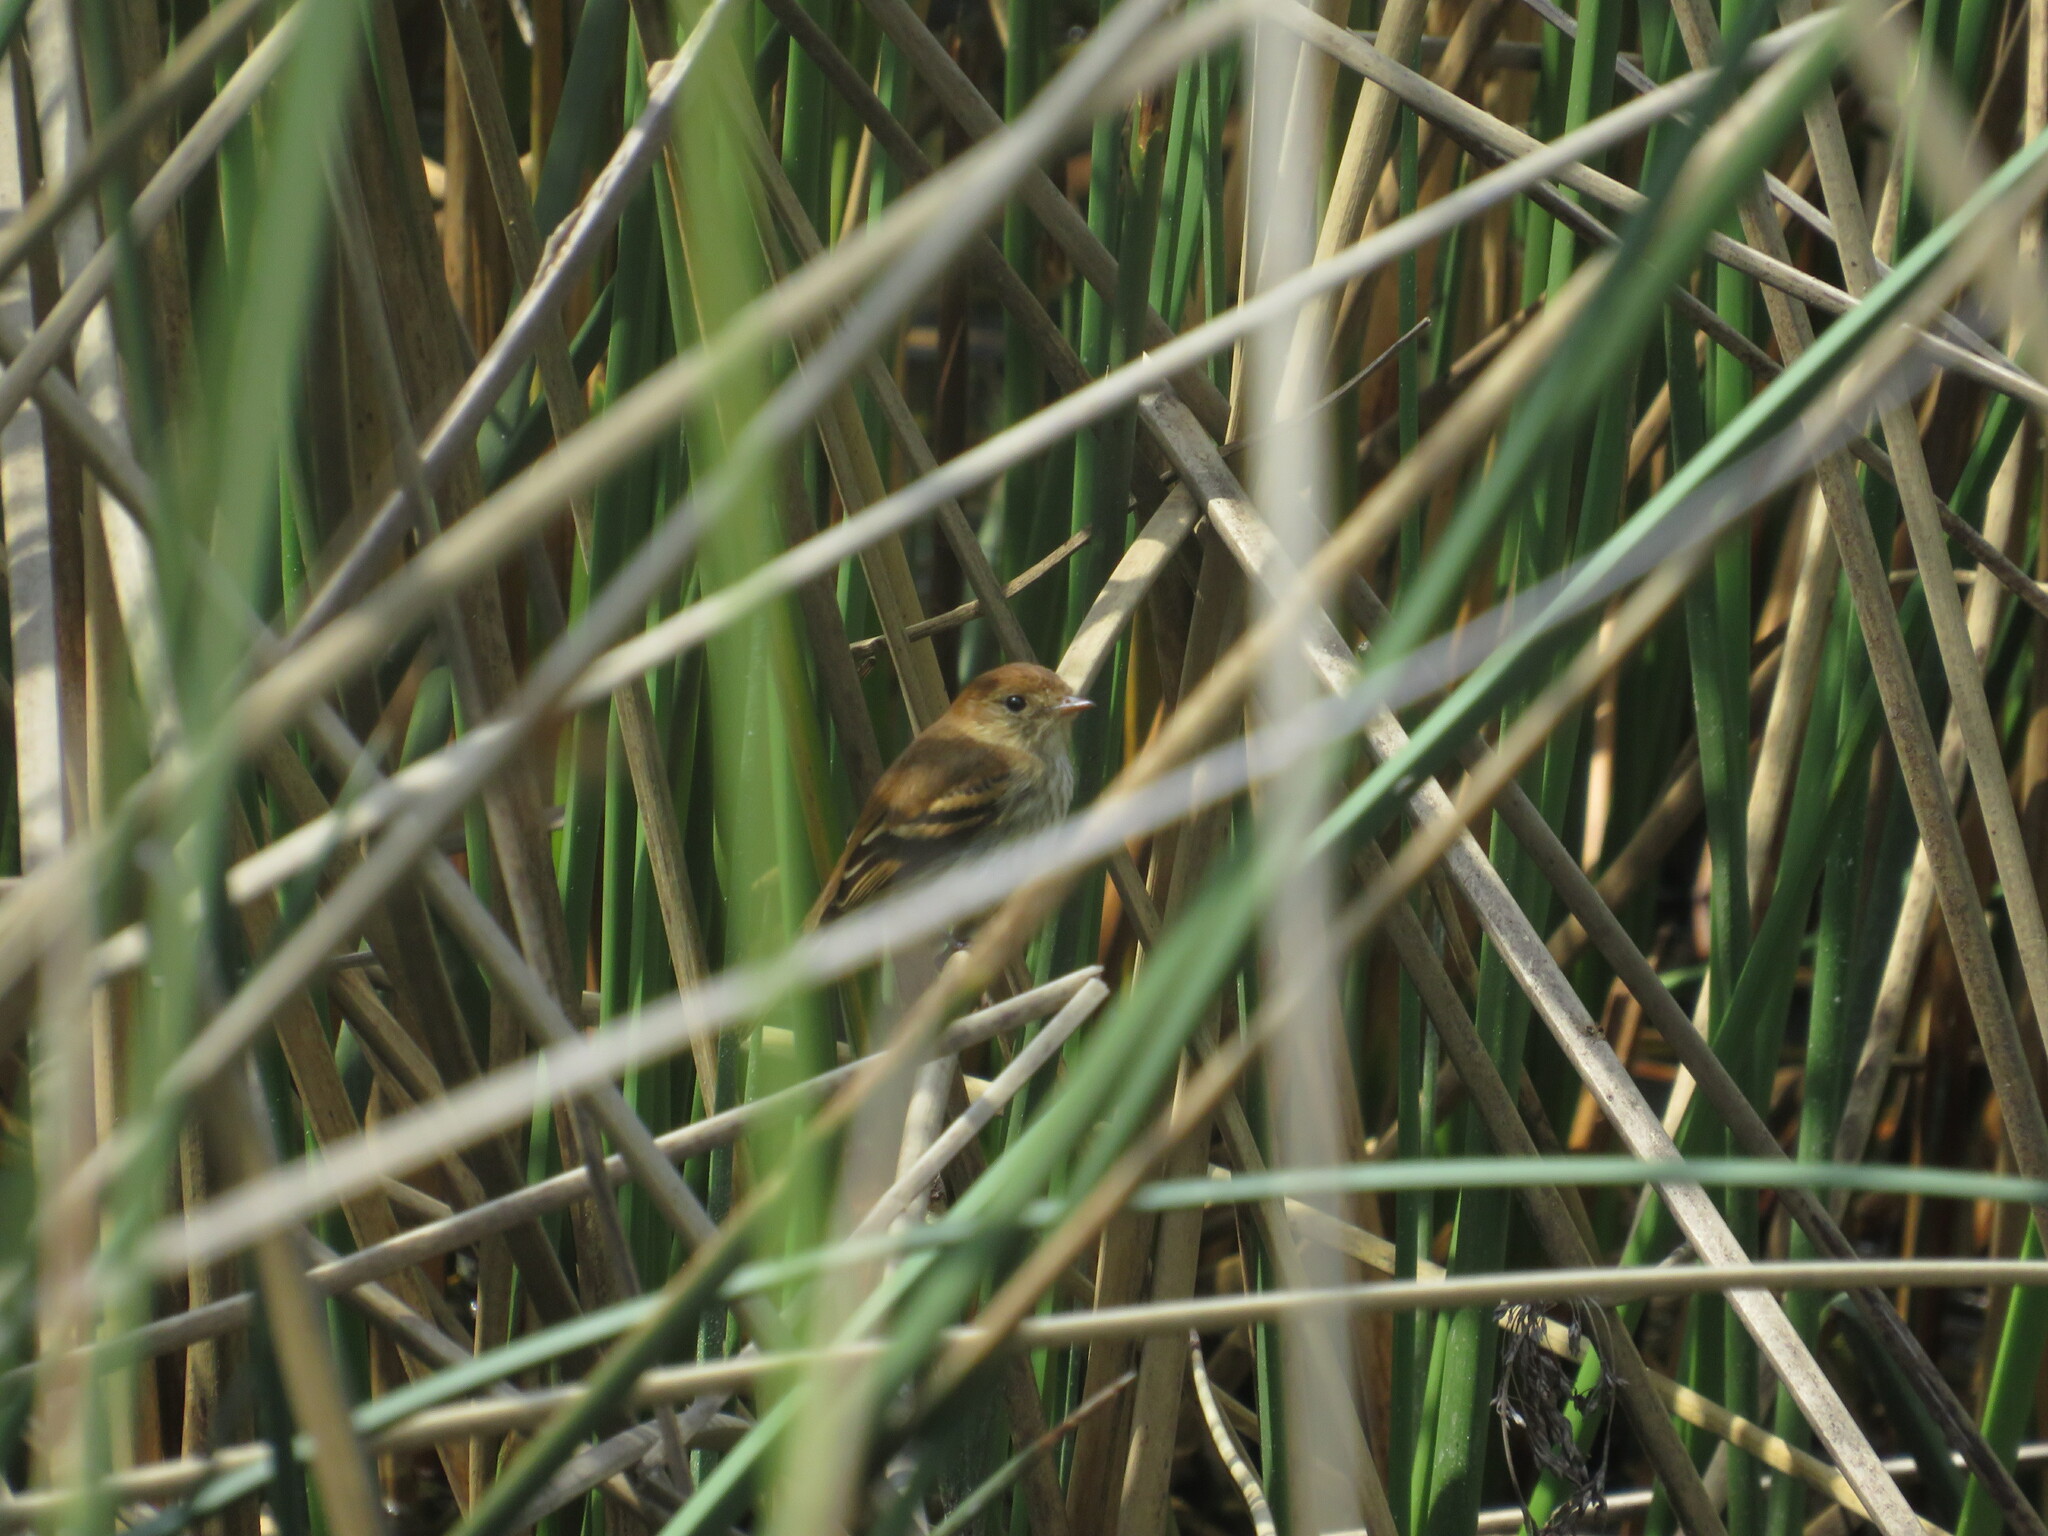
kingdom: Animalia
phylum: Chordata
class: Aves
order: Passeriformes
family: Tyrannidae
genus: Myiophobus
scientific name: Myiophobus fasciatus
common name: Bran-colored flycatcher
